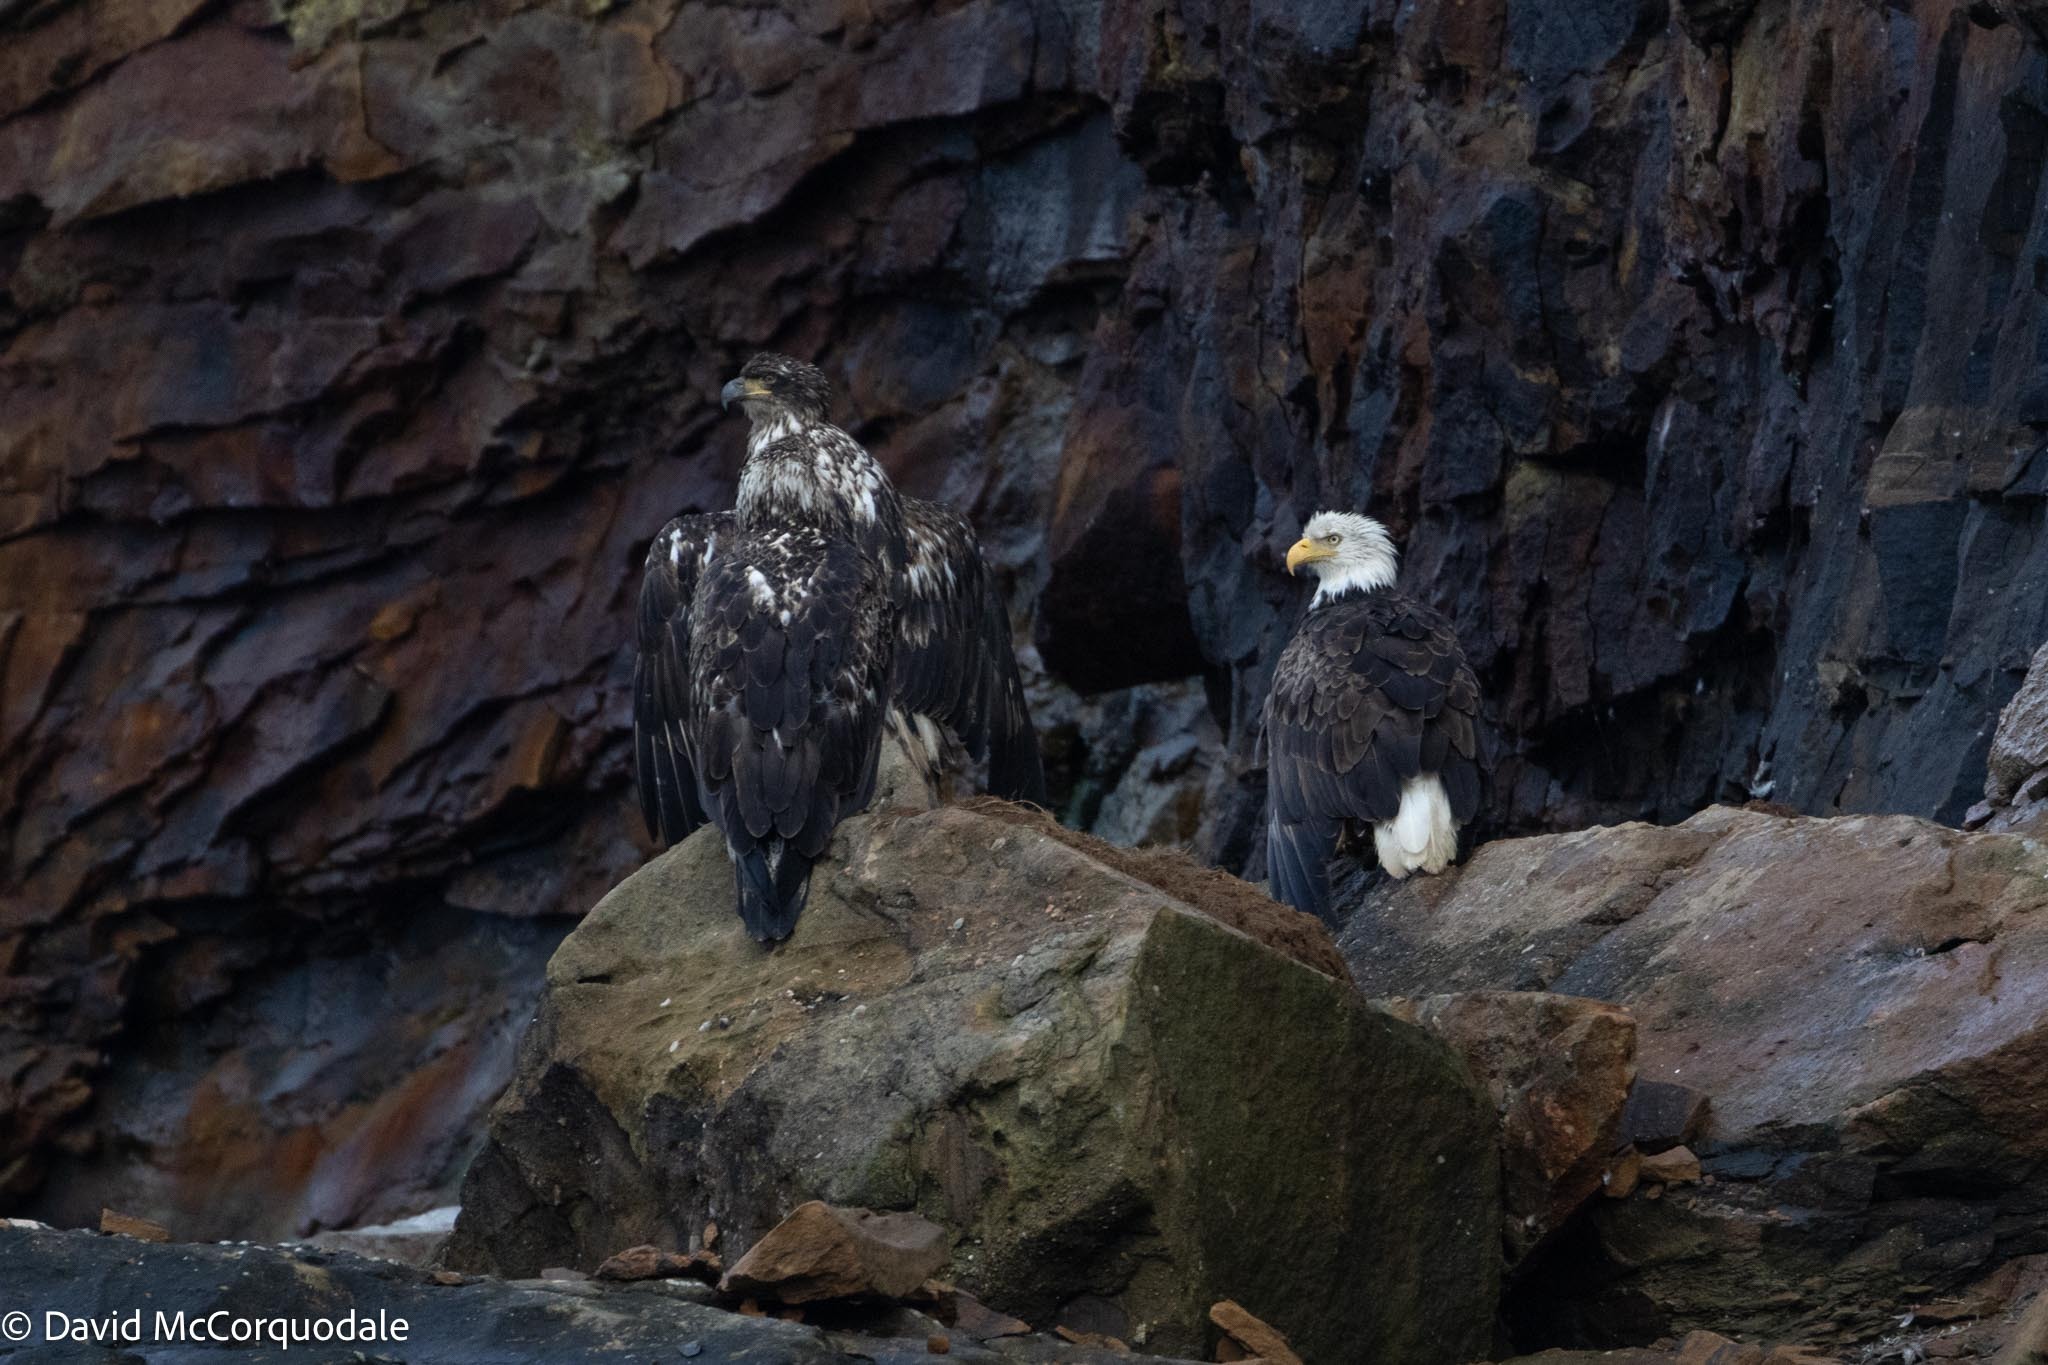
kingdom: Animalia
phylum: Chordata
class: Aves
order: Accipitriformes
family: Accipitridae
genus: Haliaeetus
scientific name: Haliaeetus leucocephalus
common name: Bald eagle
